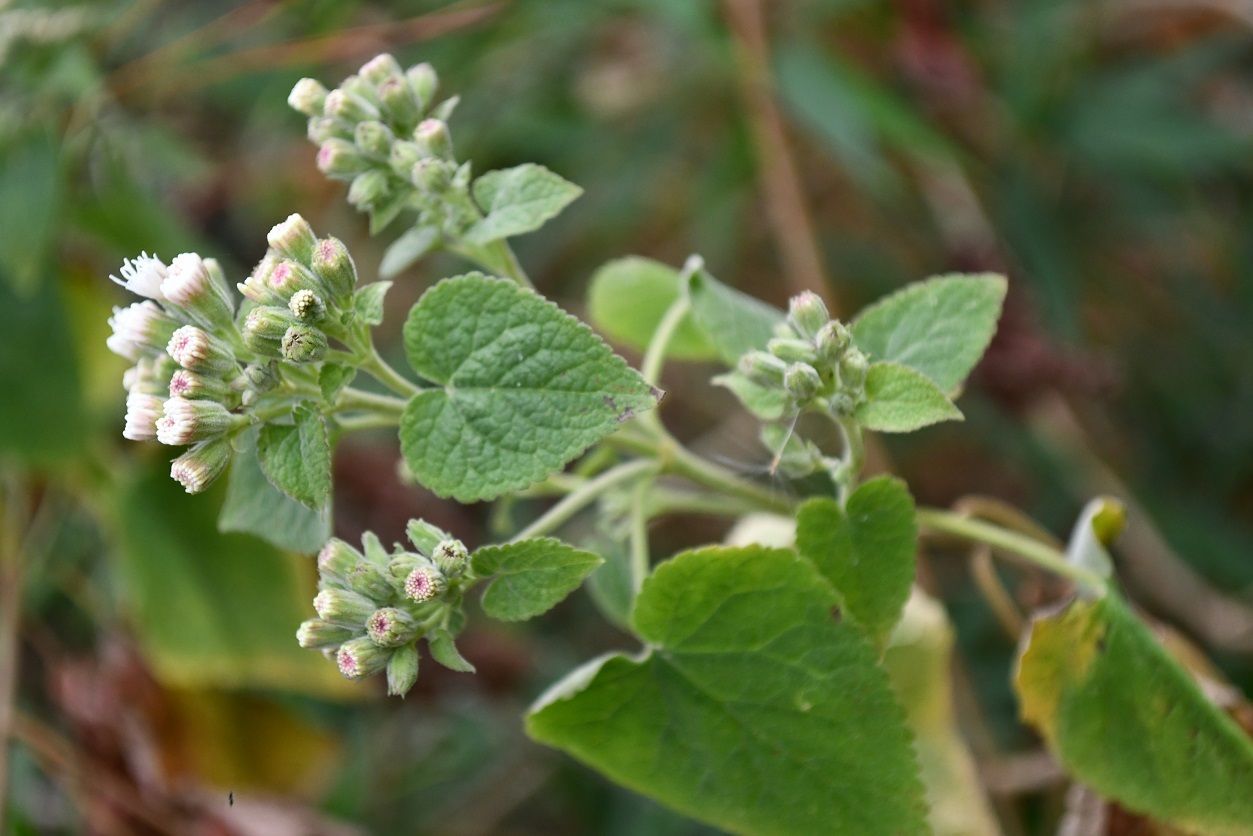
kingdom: Plantae
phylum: Tracheophyta
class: Magnoliopsida
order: Asterales
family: Asteraceae
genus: Ageratina
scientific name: Ageratina petiolaris
